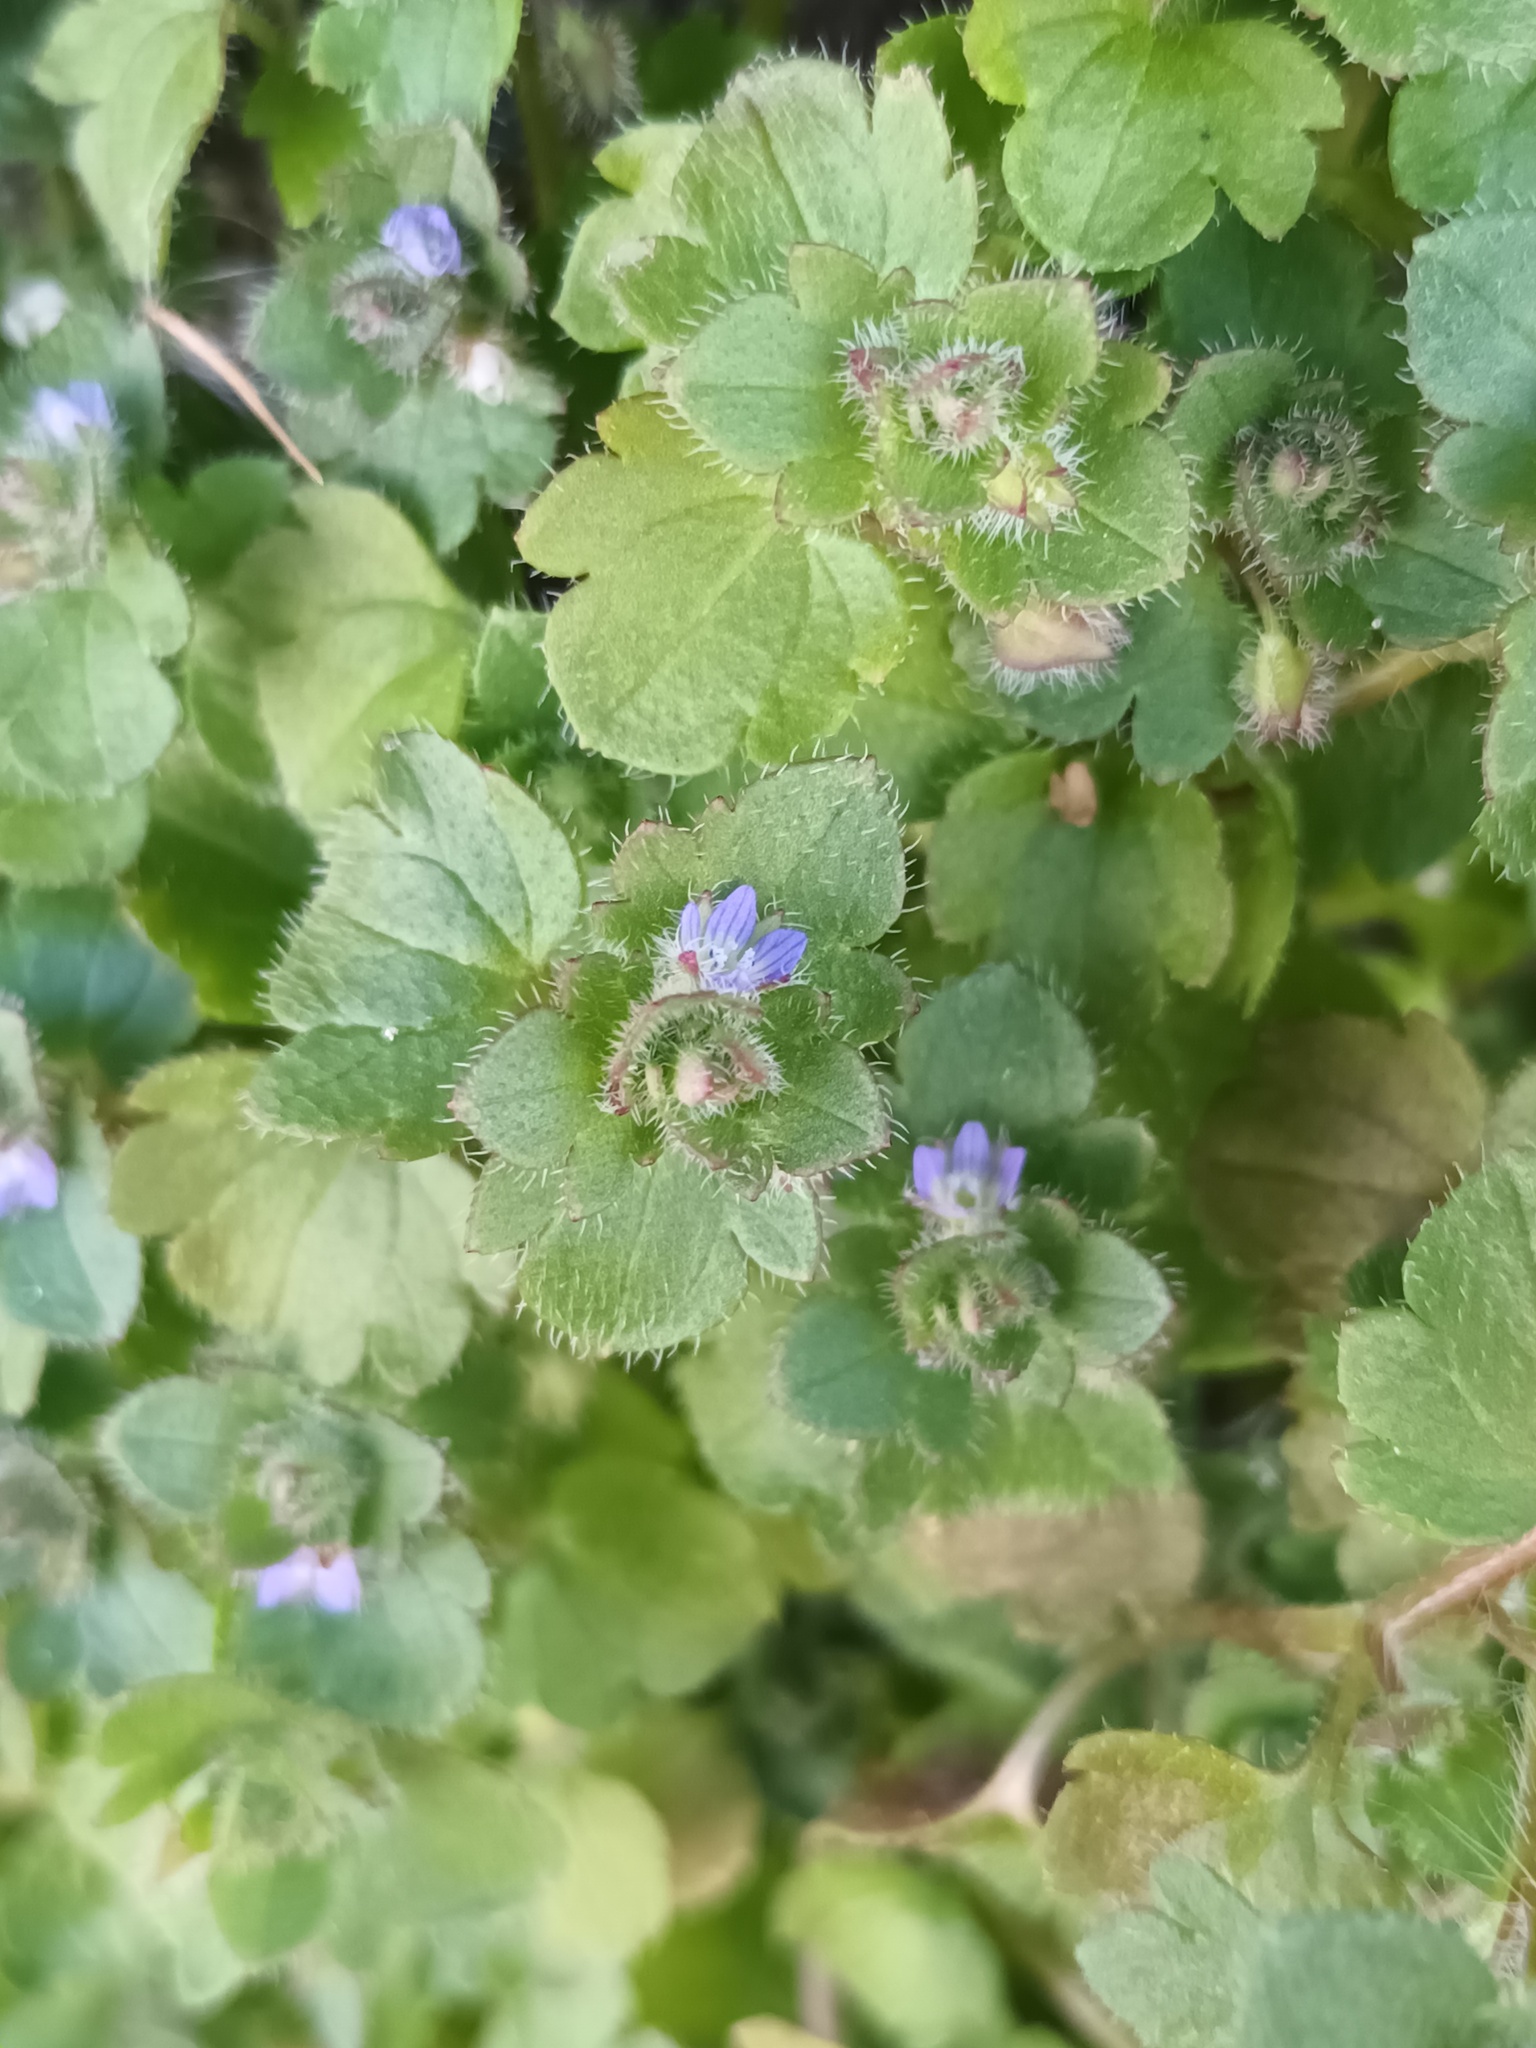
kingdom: Plantae
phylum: Tracheophyta
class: Magnoliopsida
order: Lamiales
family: Plantaginaceae
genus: Veronica
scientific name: Veronica hederifolia
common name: Ivy-leaved speedwell
